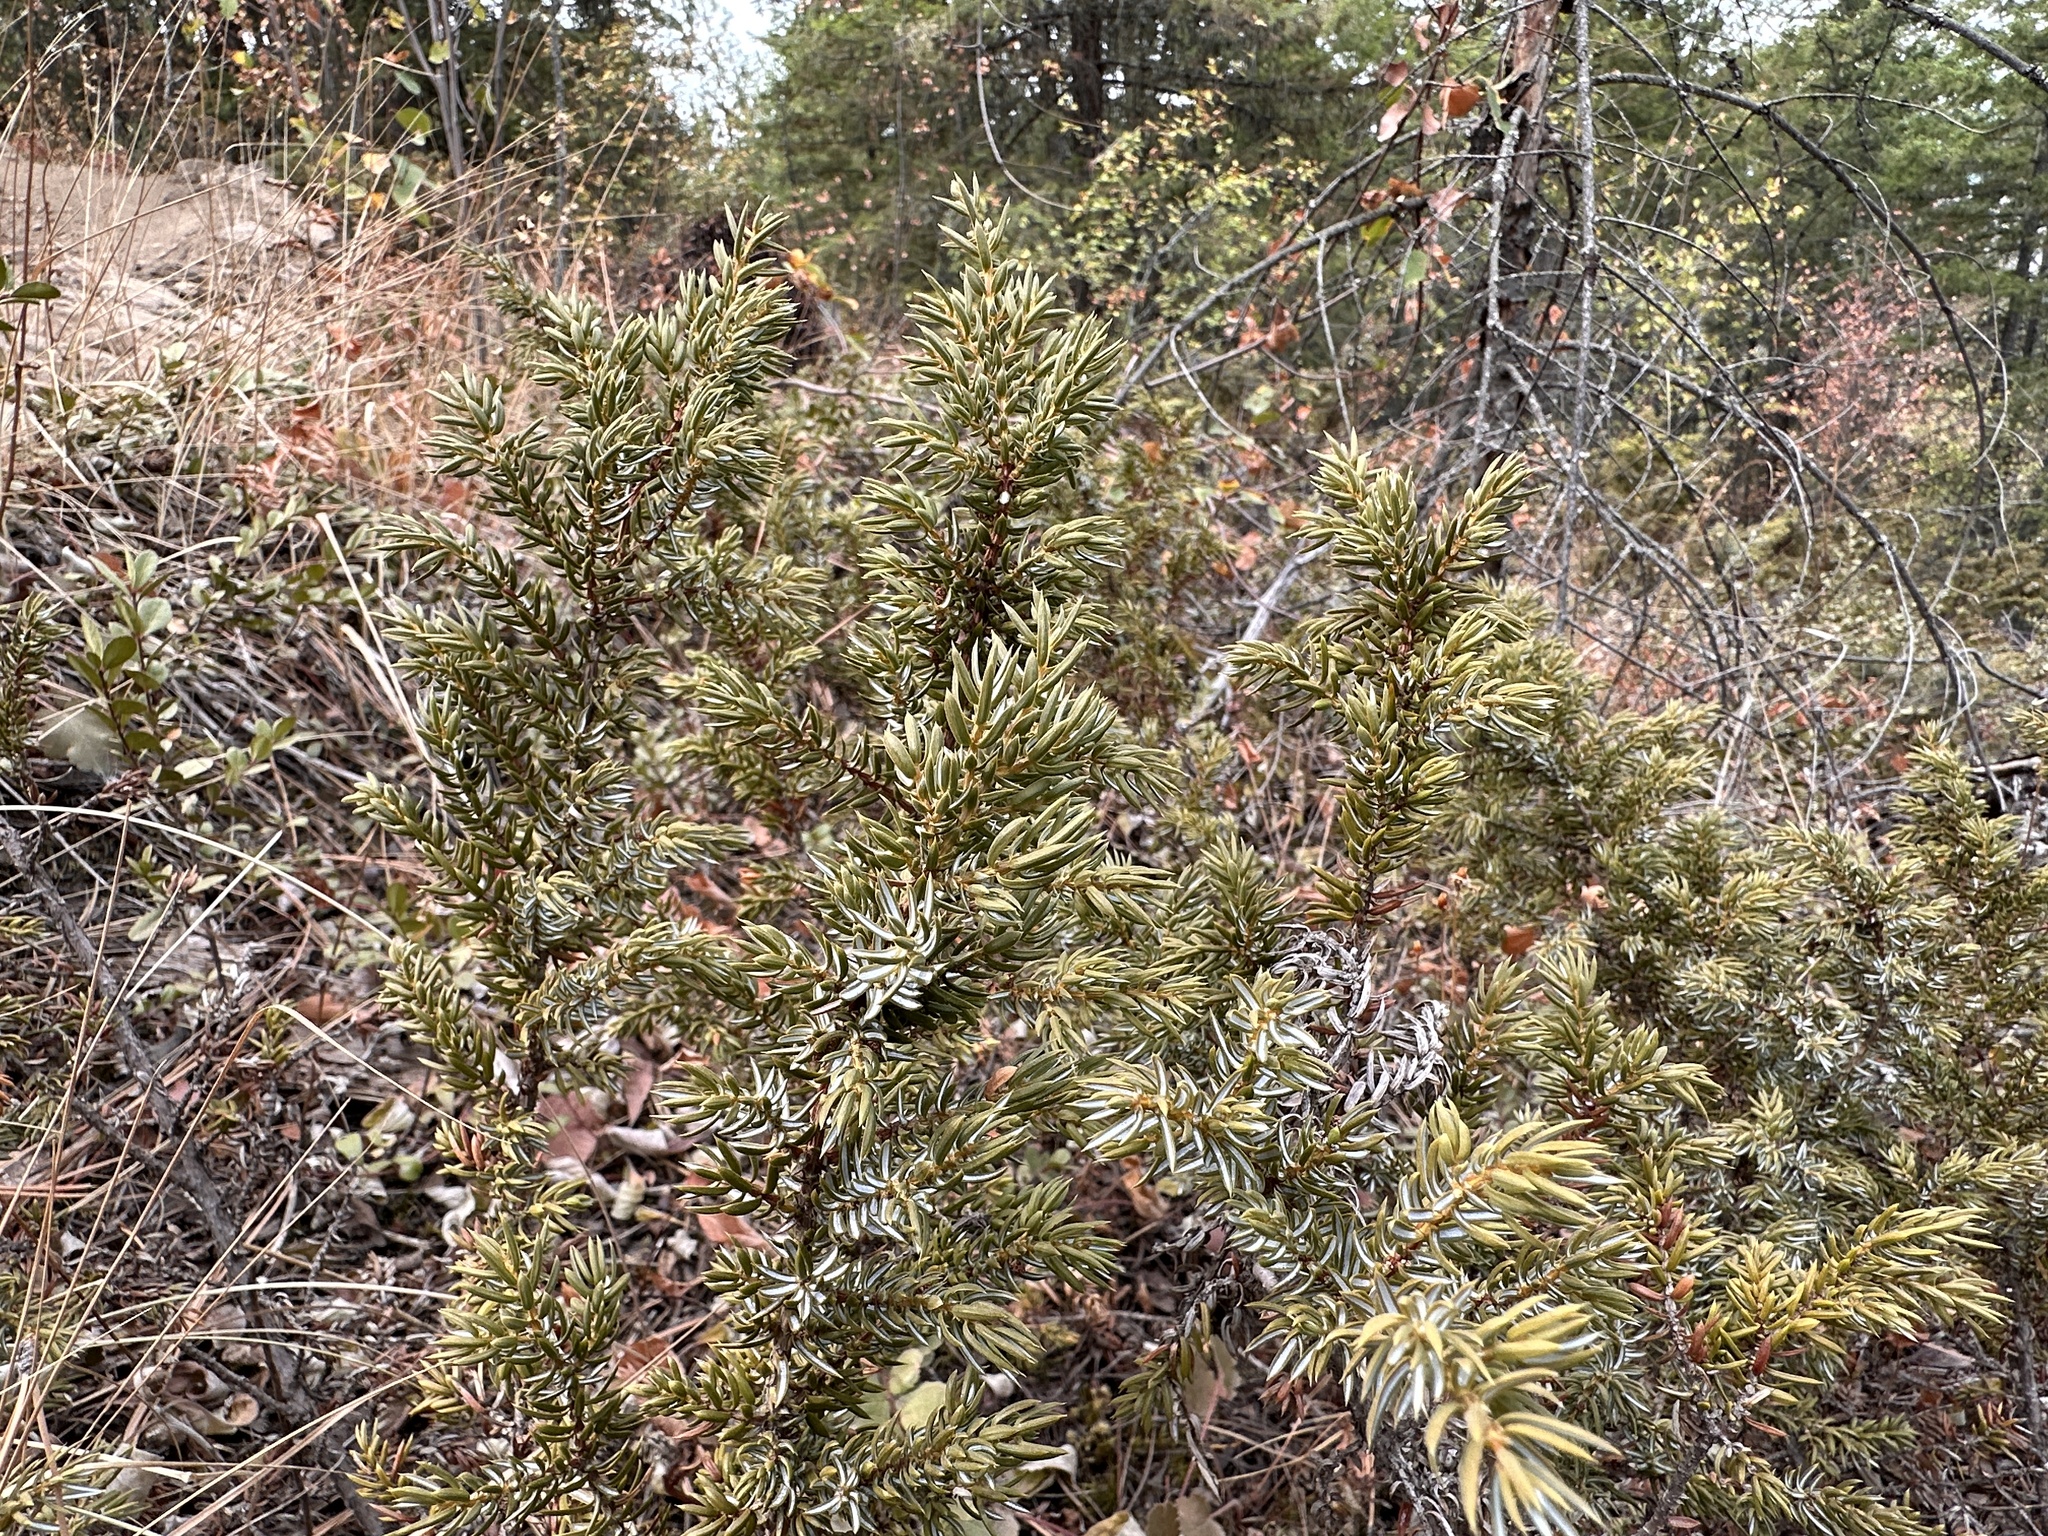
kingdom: Plantae
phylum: Tracheophyta
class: Pinopsida
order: Pinales
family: Cupressaceae
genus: Juniperus
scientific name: Juniperus communis
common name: Common juniper
